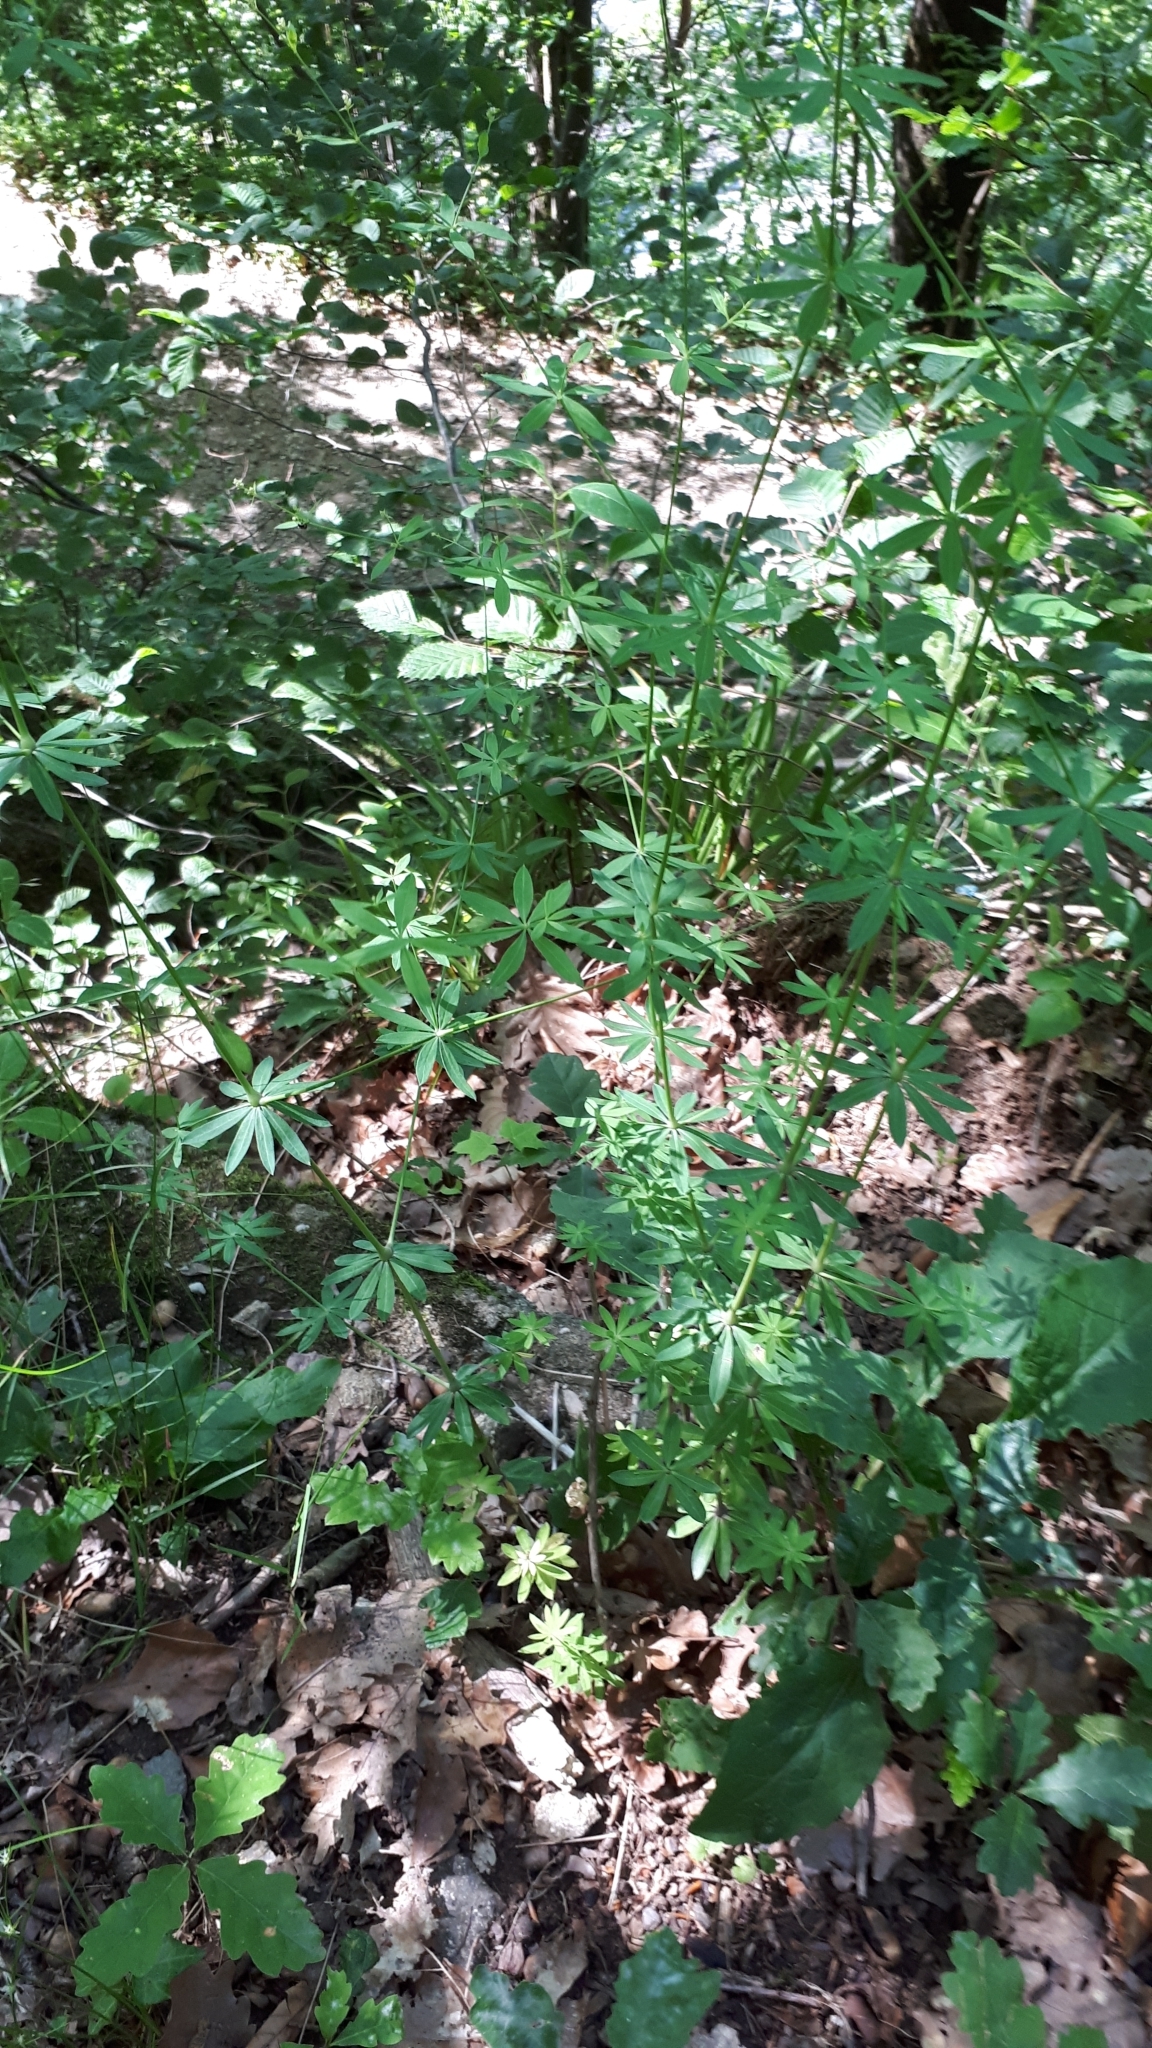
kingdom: Plantae
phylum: Tracheophyta
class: Magnoliopsida
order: Gentianales
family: Rubiaceae
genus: Galium
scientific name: Galium sylvaticum
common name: Wood bedstraw
